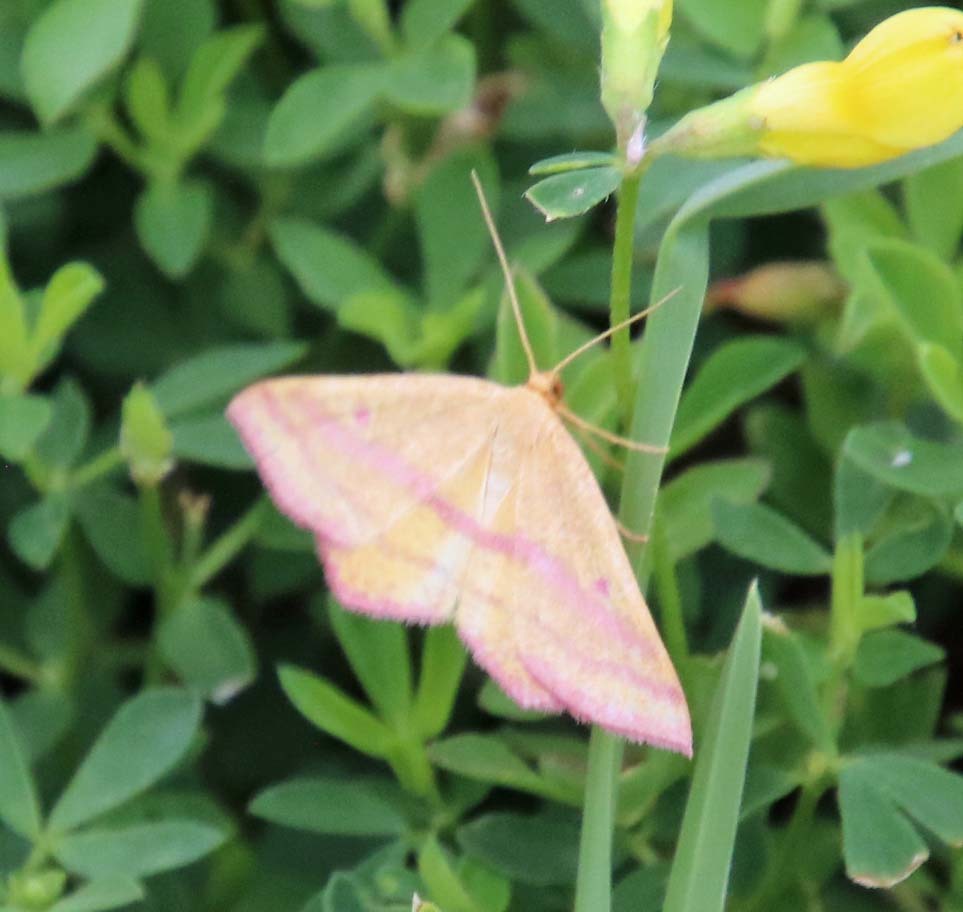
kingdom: Animalia
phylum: Arthropoda
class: Insecta
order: Lepidoptera
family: Geometridae
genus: Haematopis
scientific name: Haematopis grataria
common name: Chickweed geometer
